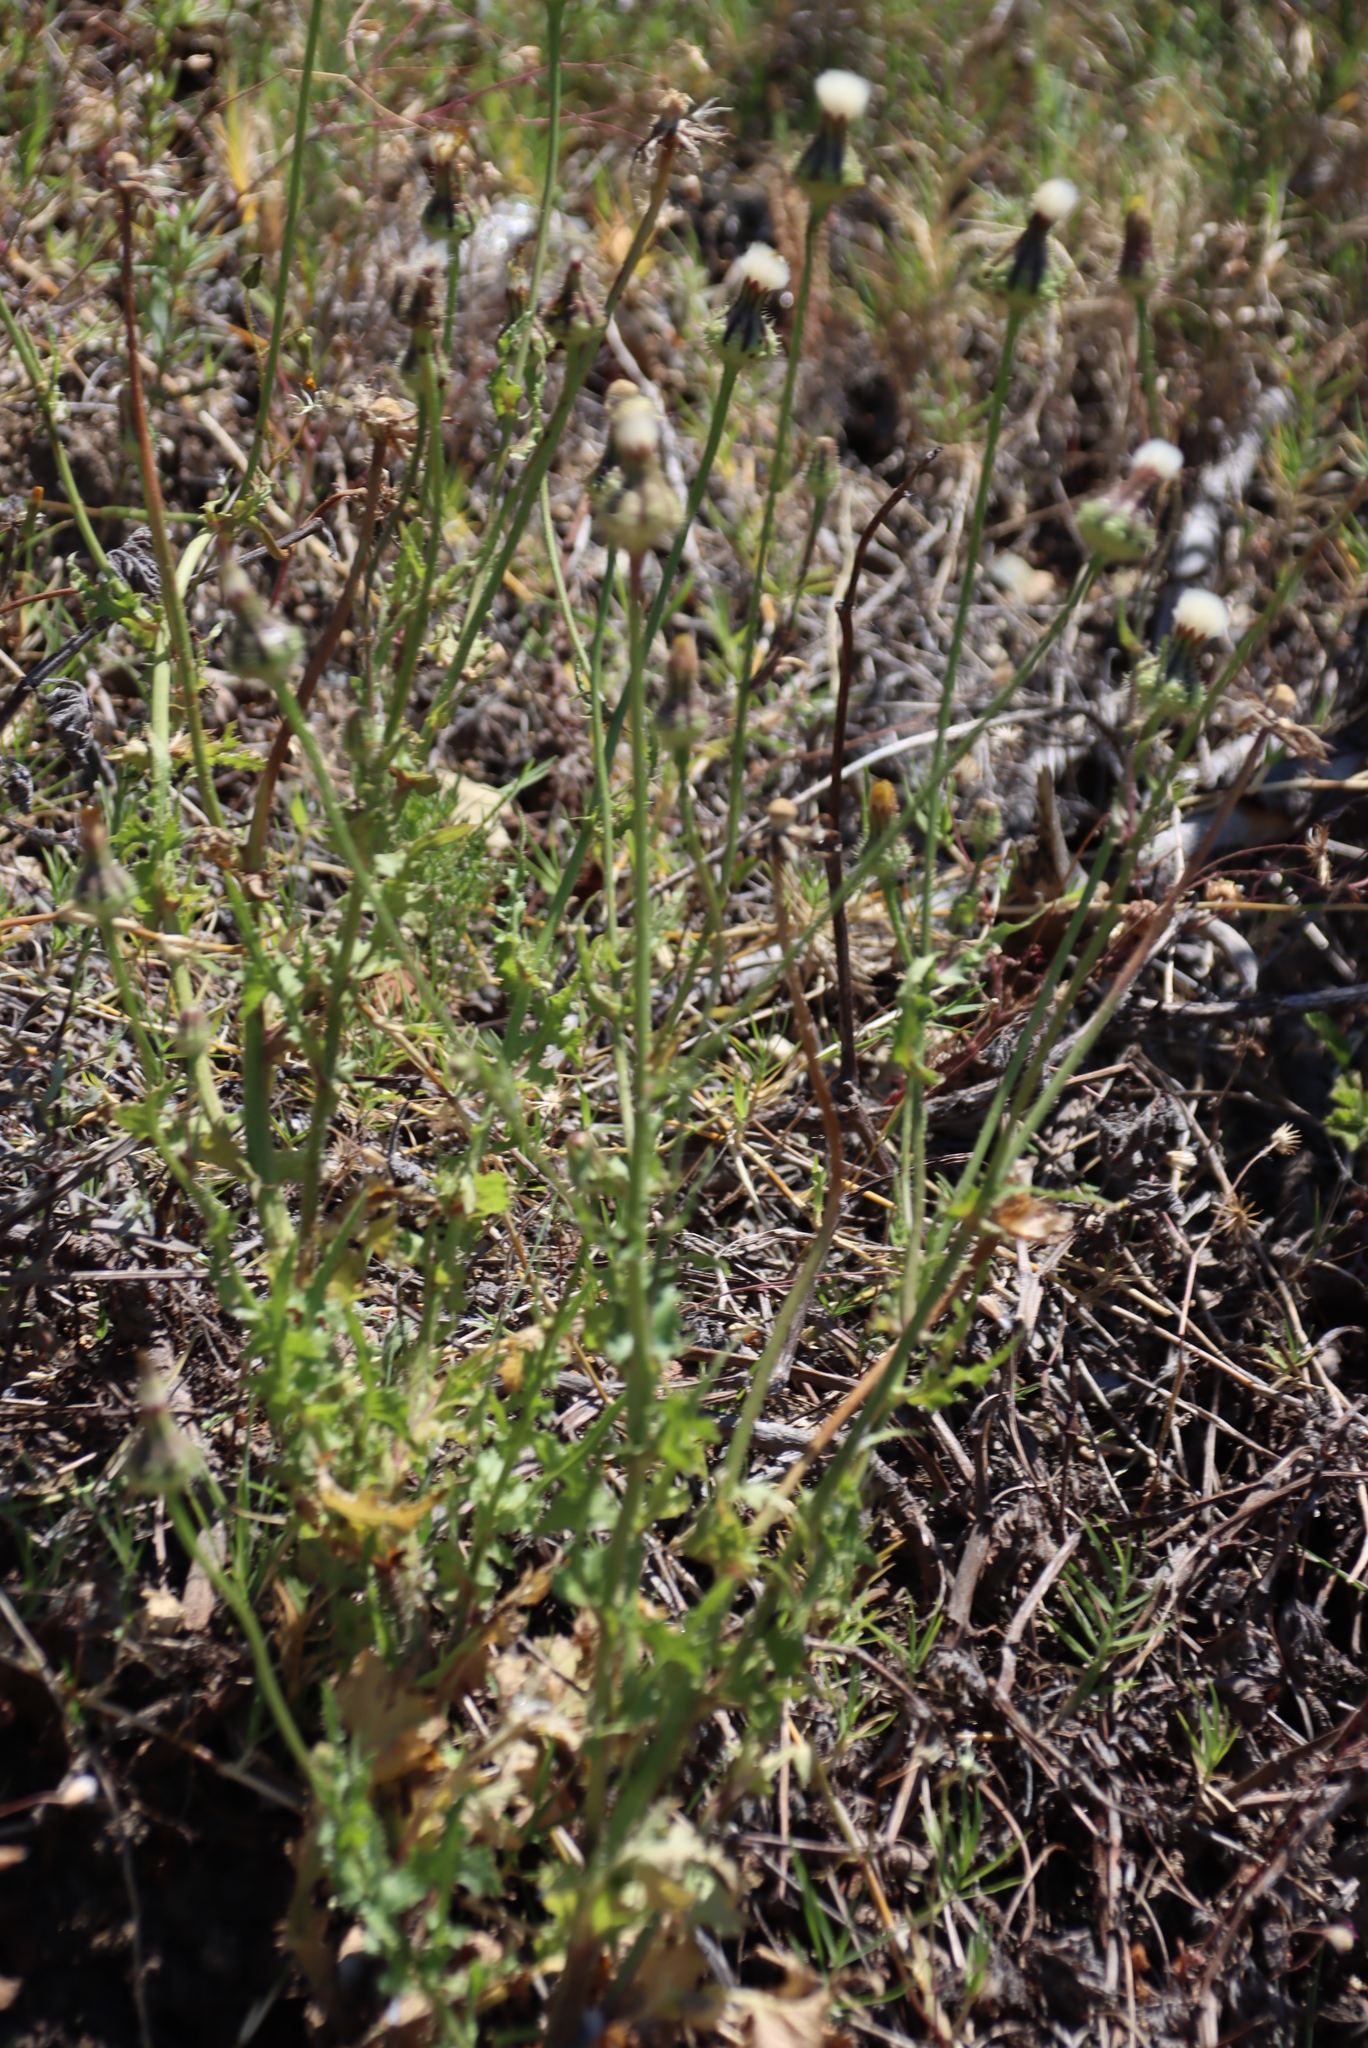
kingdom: Plantae
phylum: Tracheophyta
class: Magnoliopsida
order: Asterales
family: Asteraceae
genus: Urospermum
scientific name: Urospermum picroides
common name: False hawkbit
